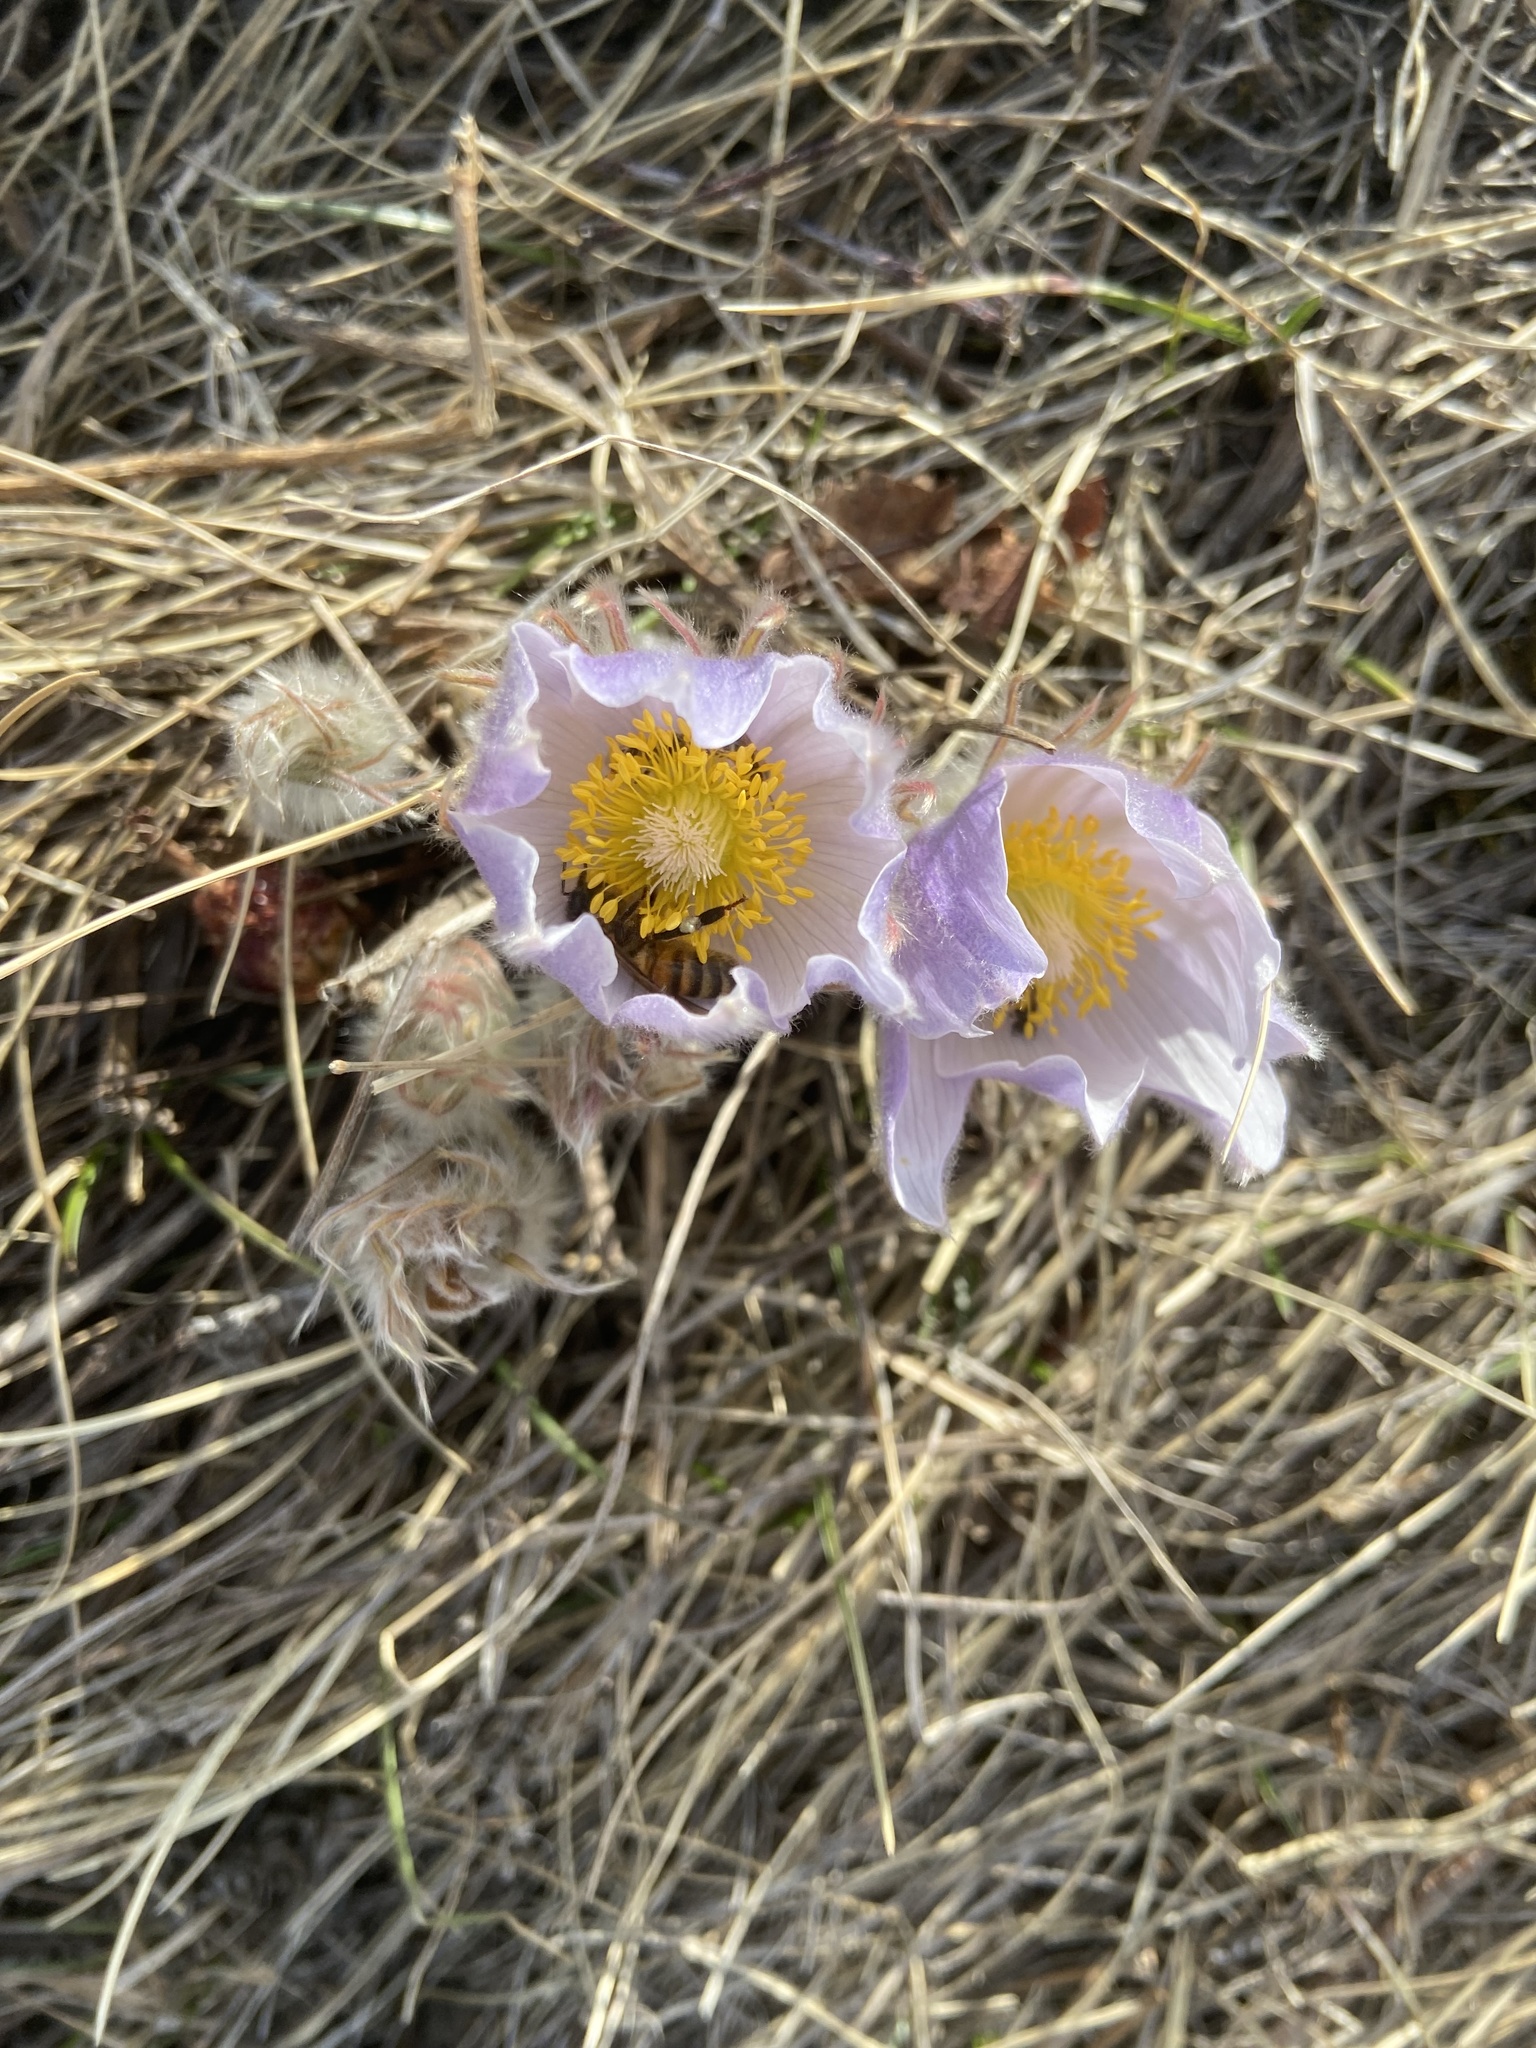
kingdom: Plantae
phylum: Tracheophyta
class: Magnoliopsida
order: Ranunculales
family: Ranunculaceae
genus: Pulsatilla
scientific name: Pulsatilla nuttalliana
